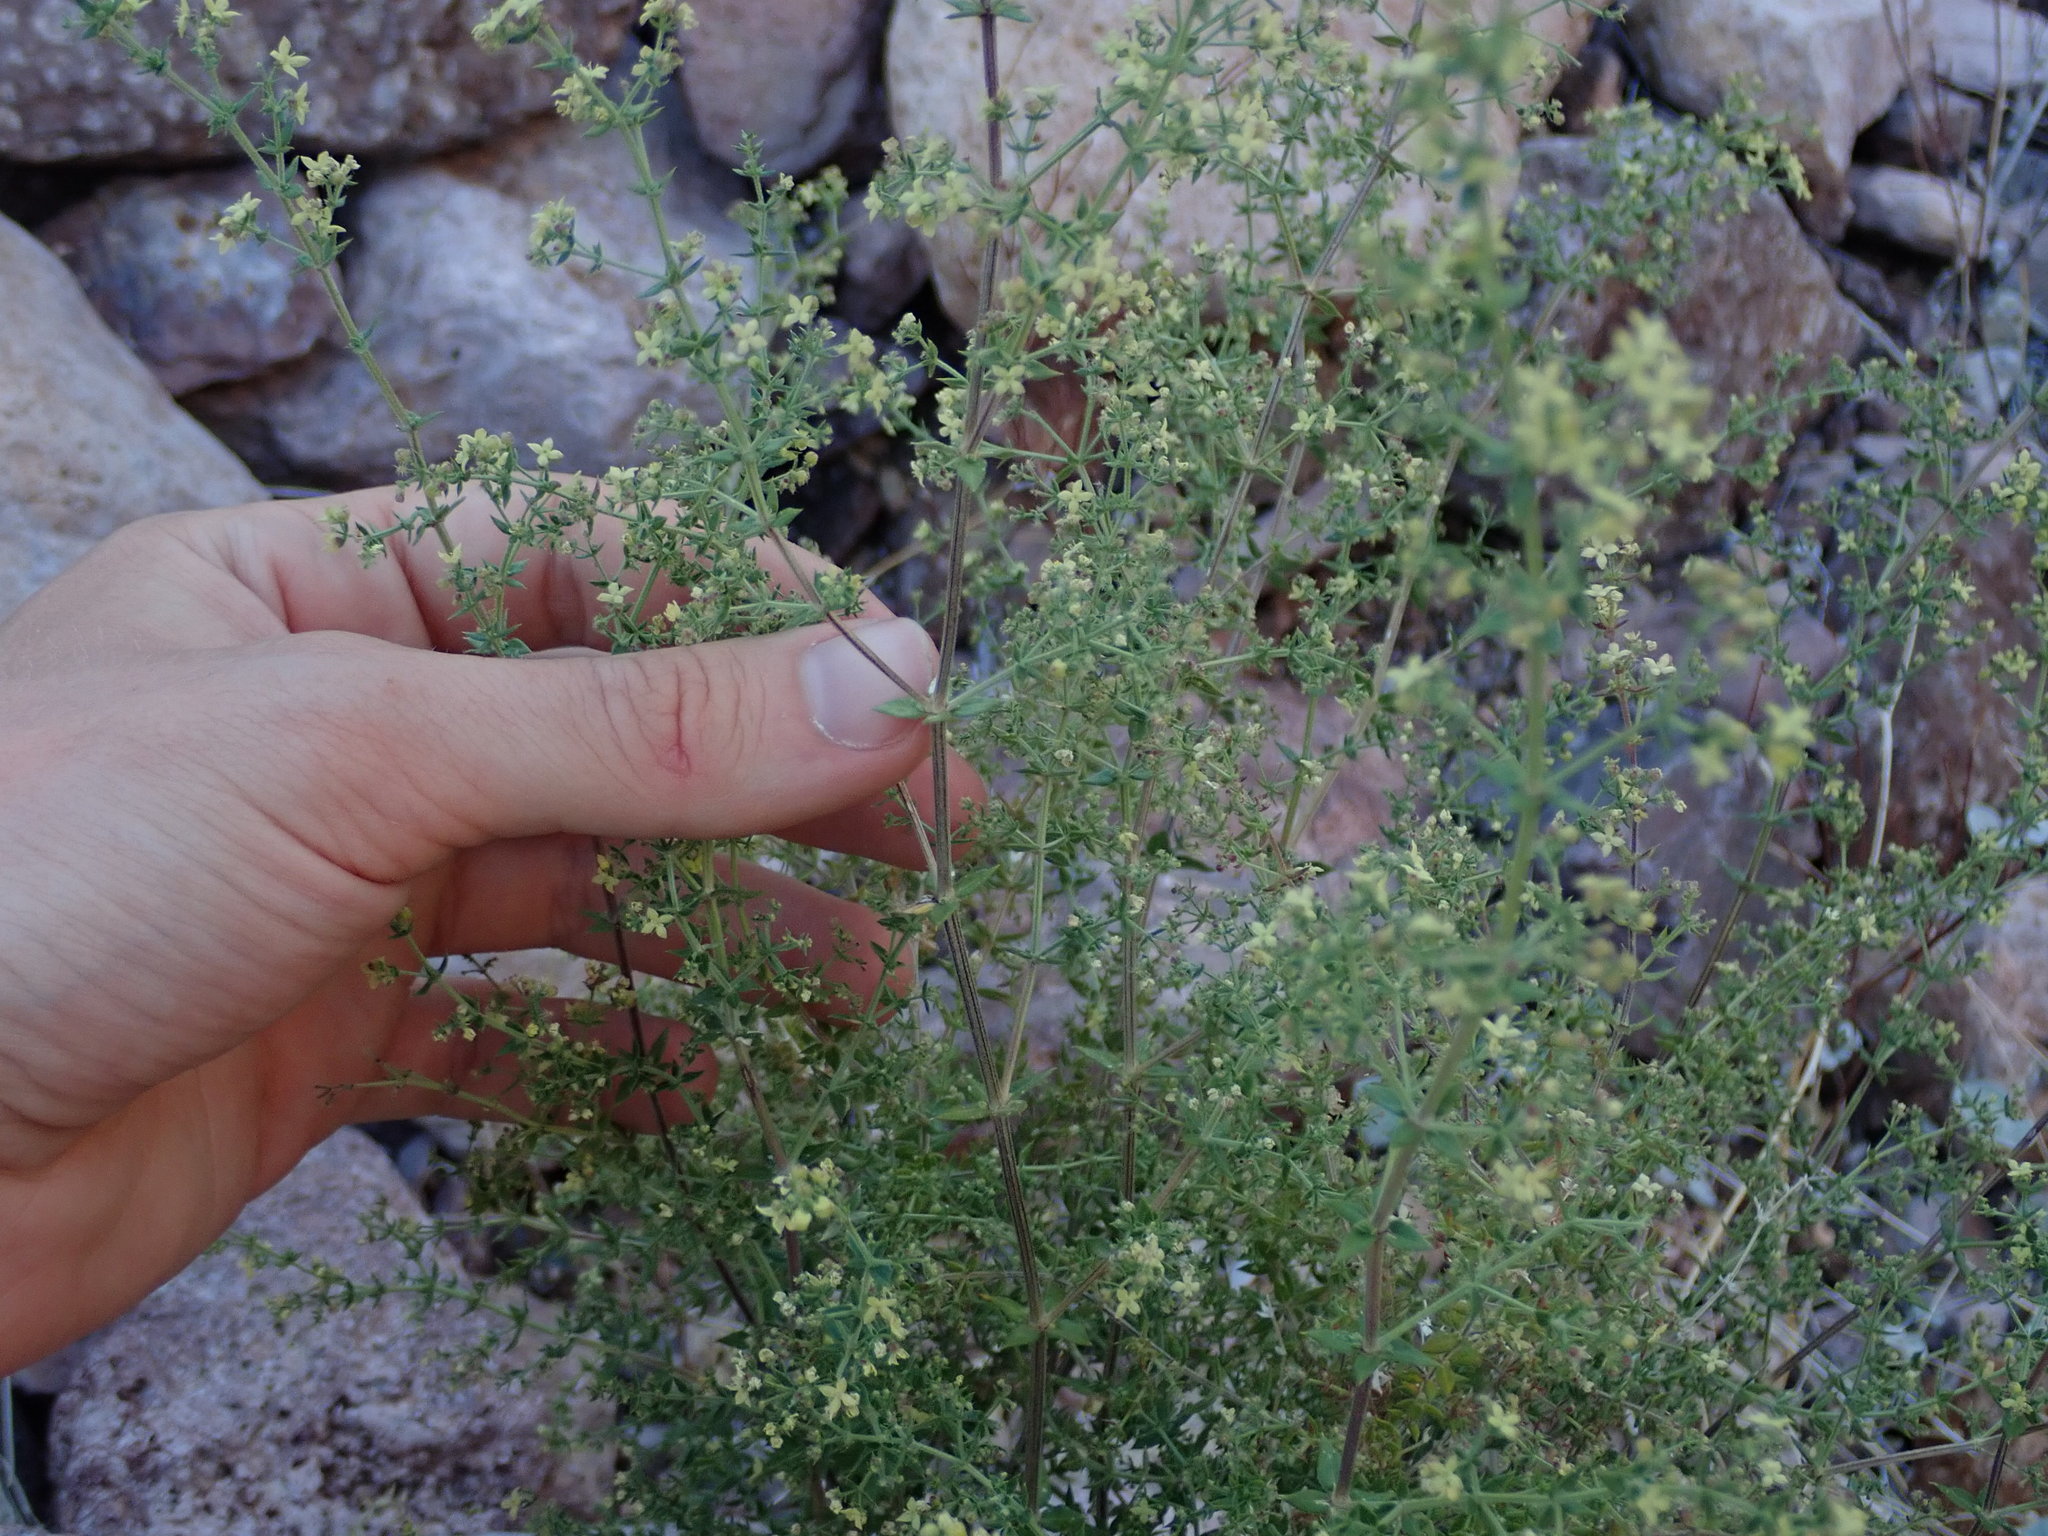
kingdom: Plantae
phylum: Tracheophyta
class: Magnoliopsida
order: Gentianales
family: Rubiaceae
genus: Galium
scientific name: Galium stellatum
